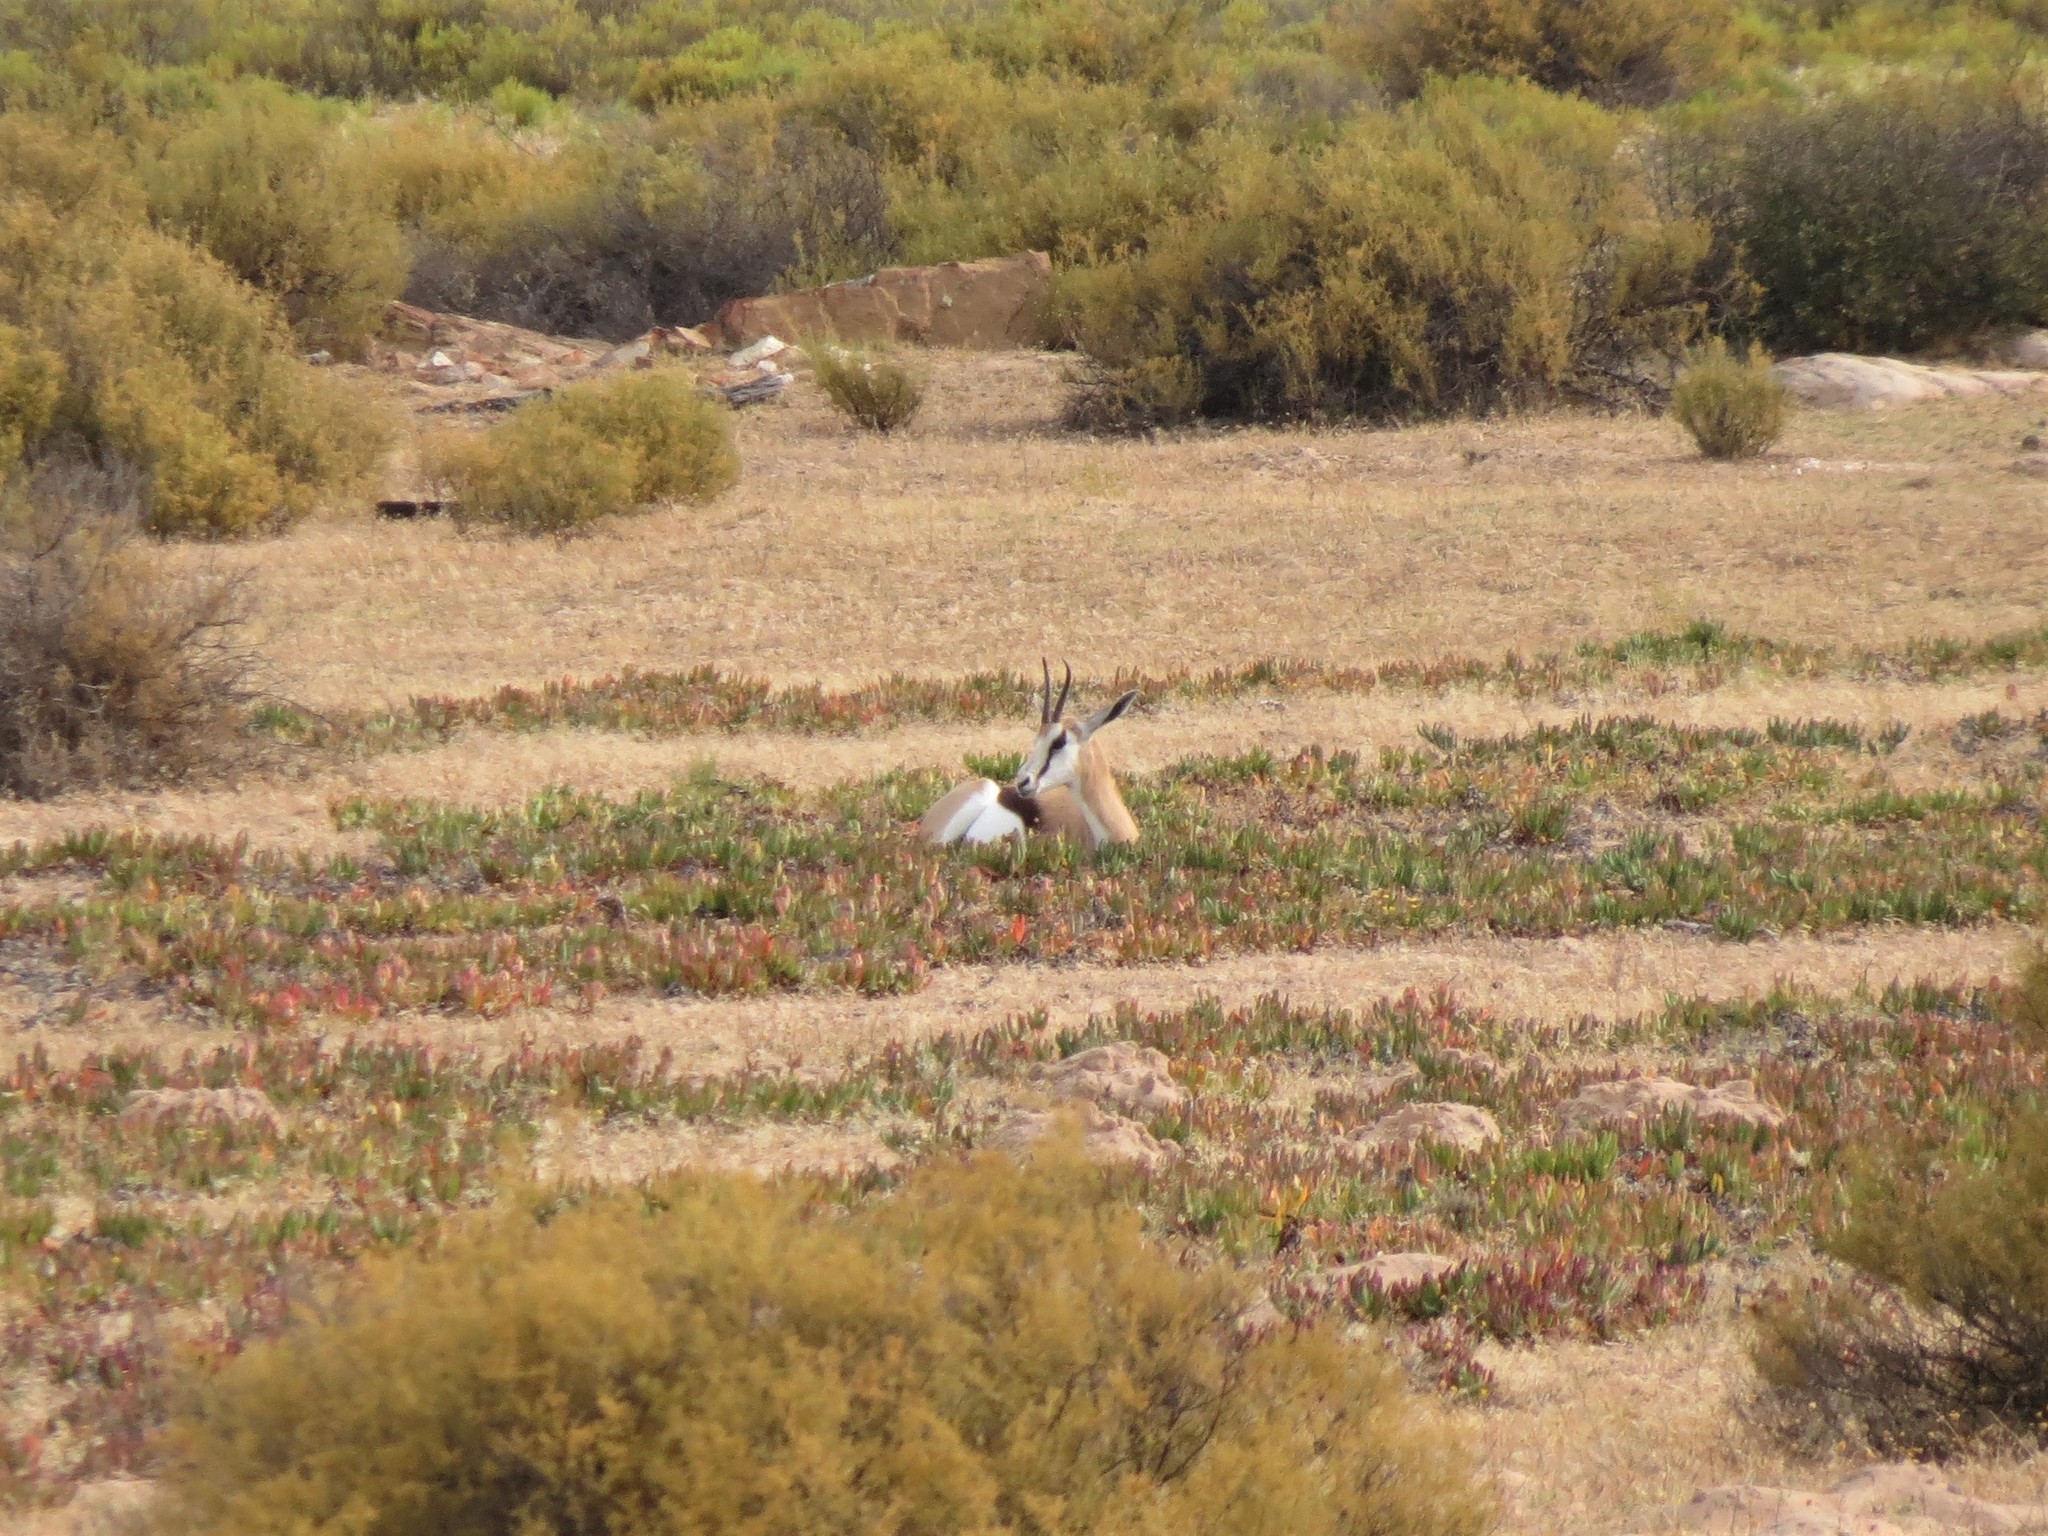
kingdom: Animalia
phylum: Chordata
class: Mammalia
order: Artiodactyla
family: Bovidae
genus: Antidorcas
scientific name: Antidorcas marsupialis
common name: Springbok
